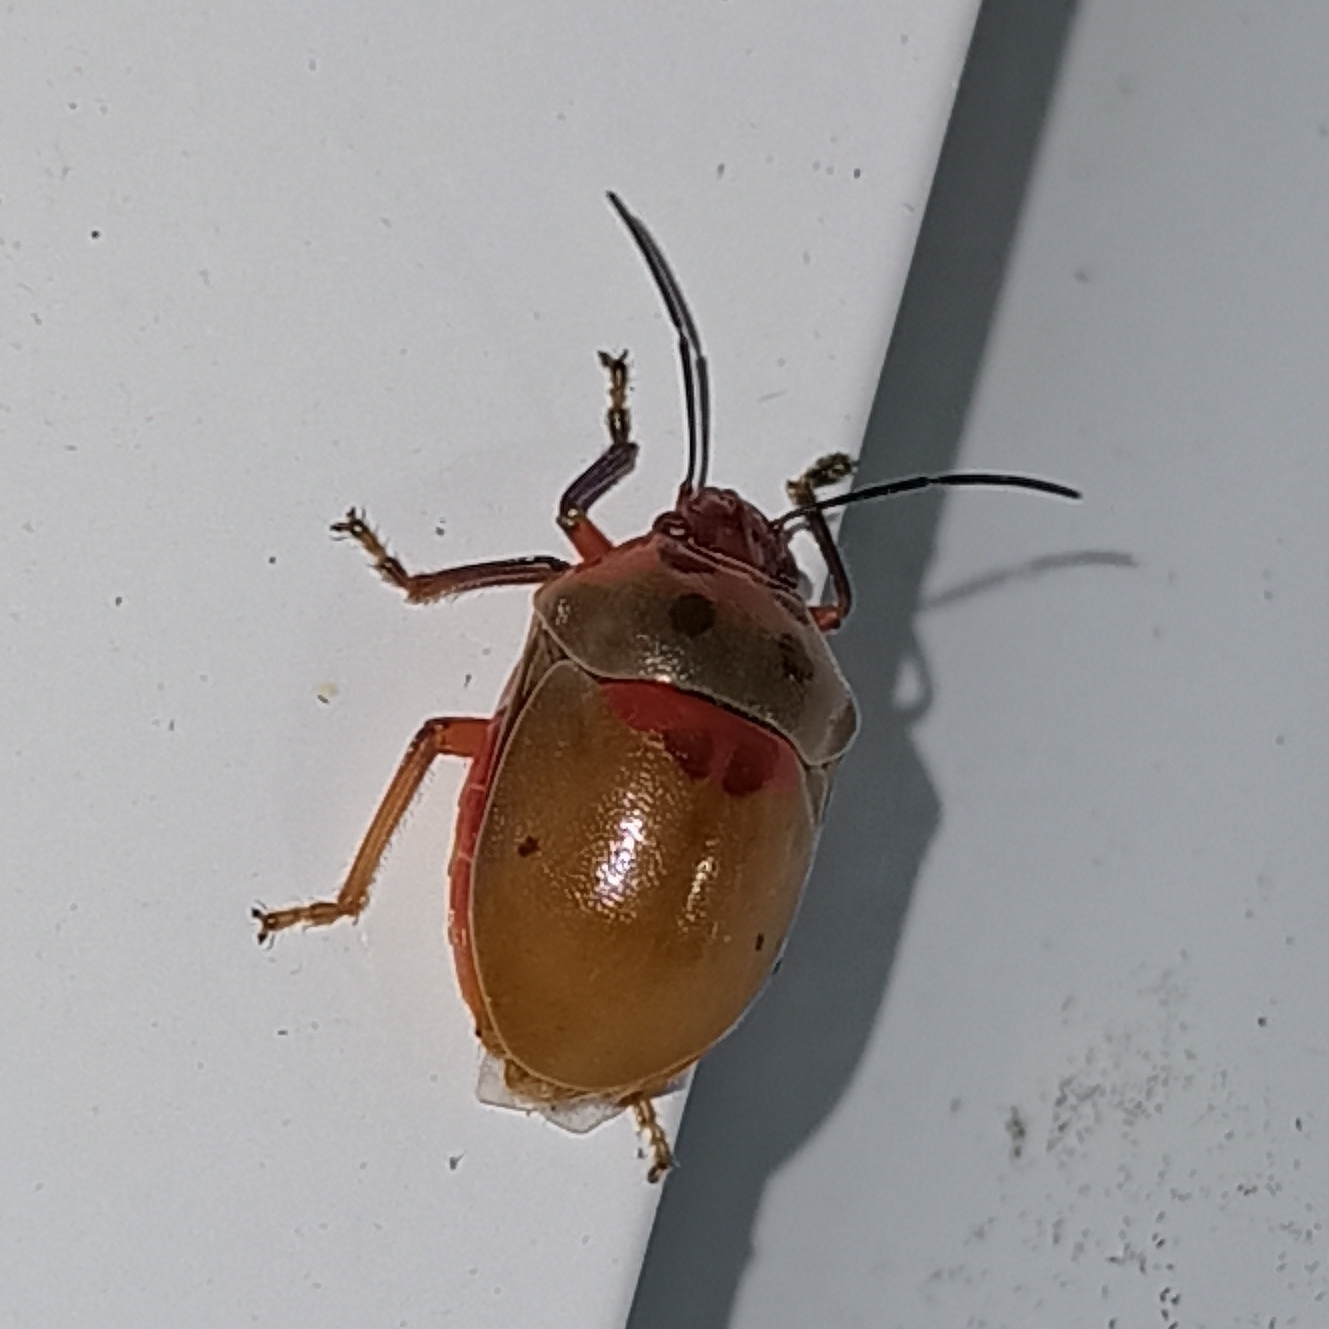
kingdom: Animalia
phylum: Arthropoda
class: Insecta
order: Hemiptera
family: Scutelleridae
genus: Augocoris
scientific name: Augocoris illustris
